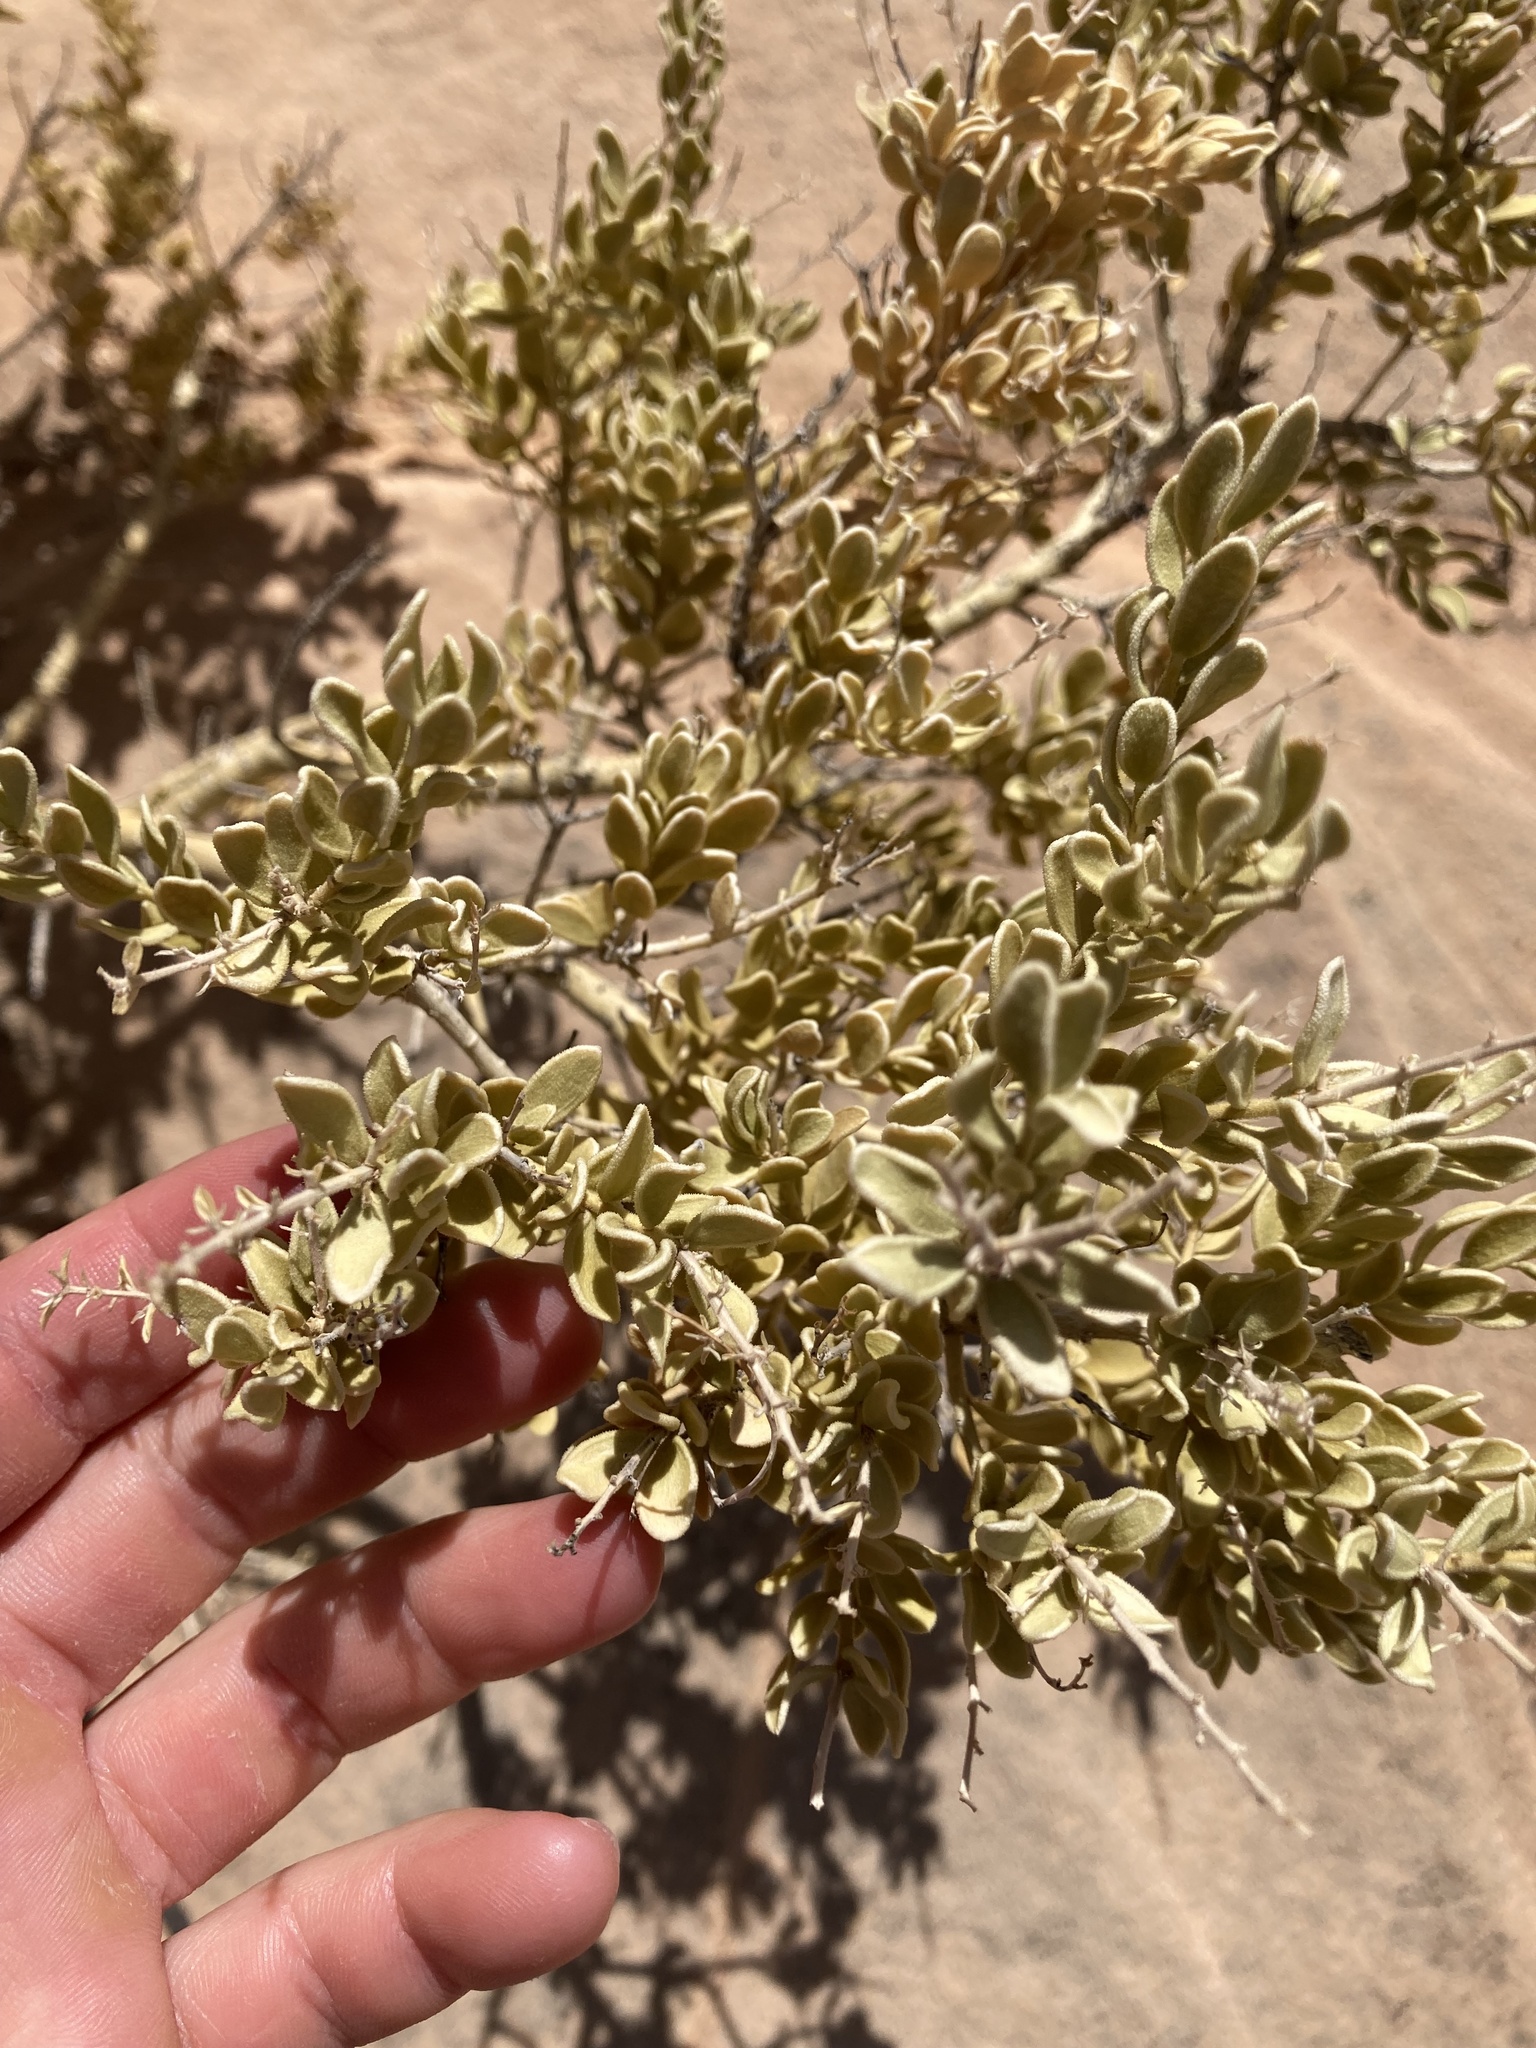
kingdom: Plantae
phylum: Tracheophyta
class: Magnoliopsida
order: Celastrales
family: Celastraceae
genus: Mortonia
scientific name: Mortonia utahensis
